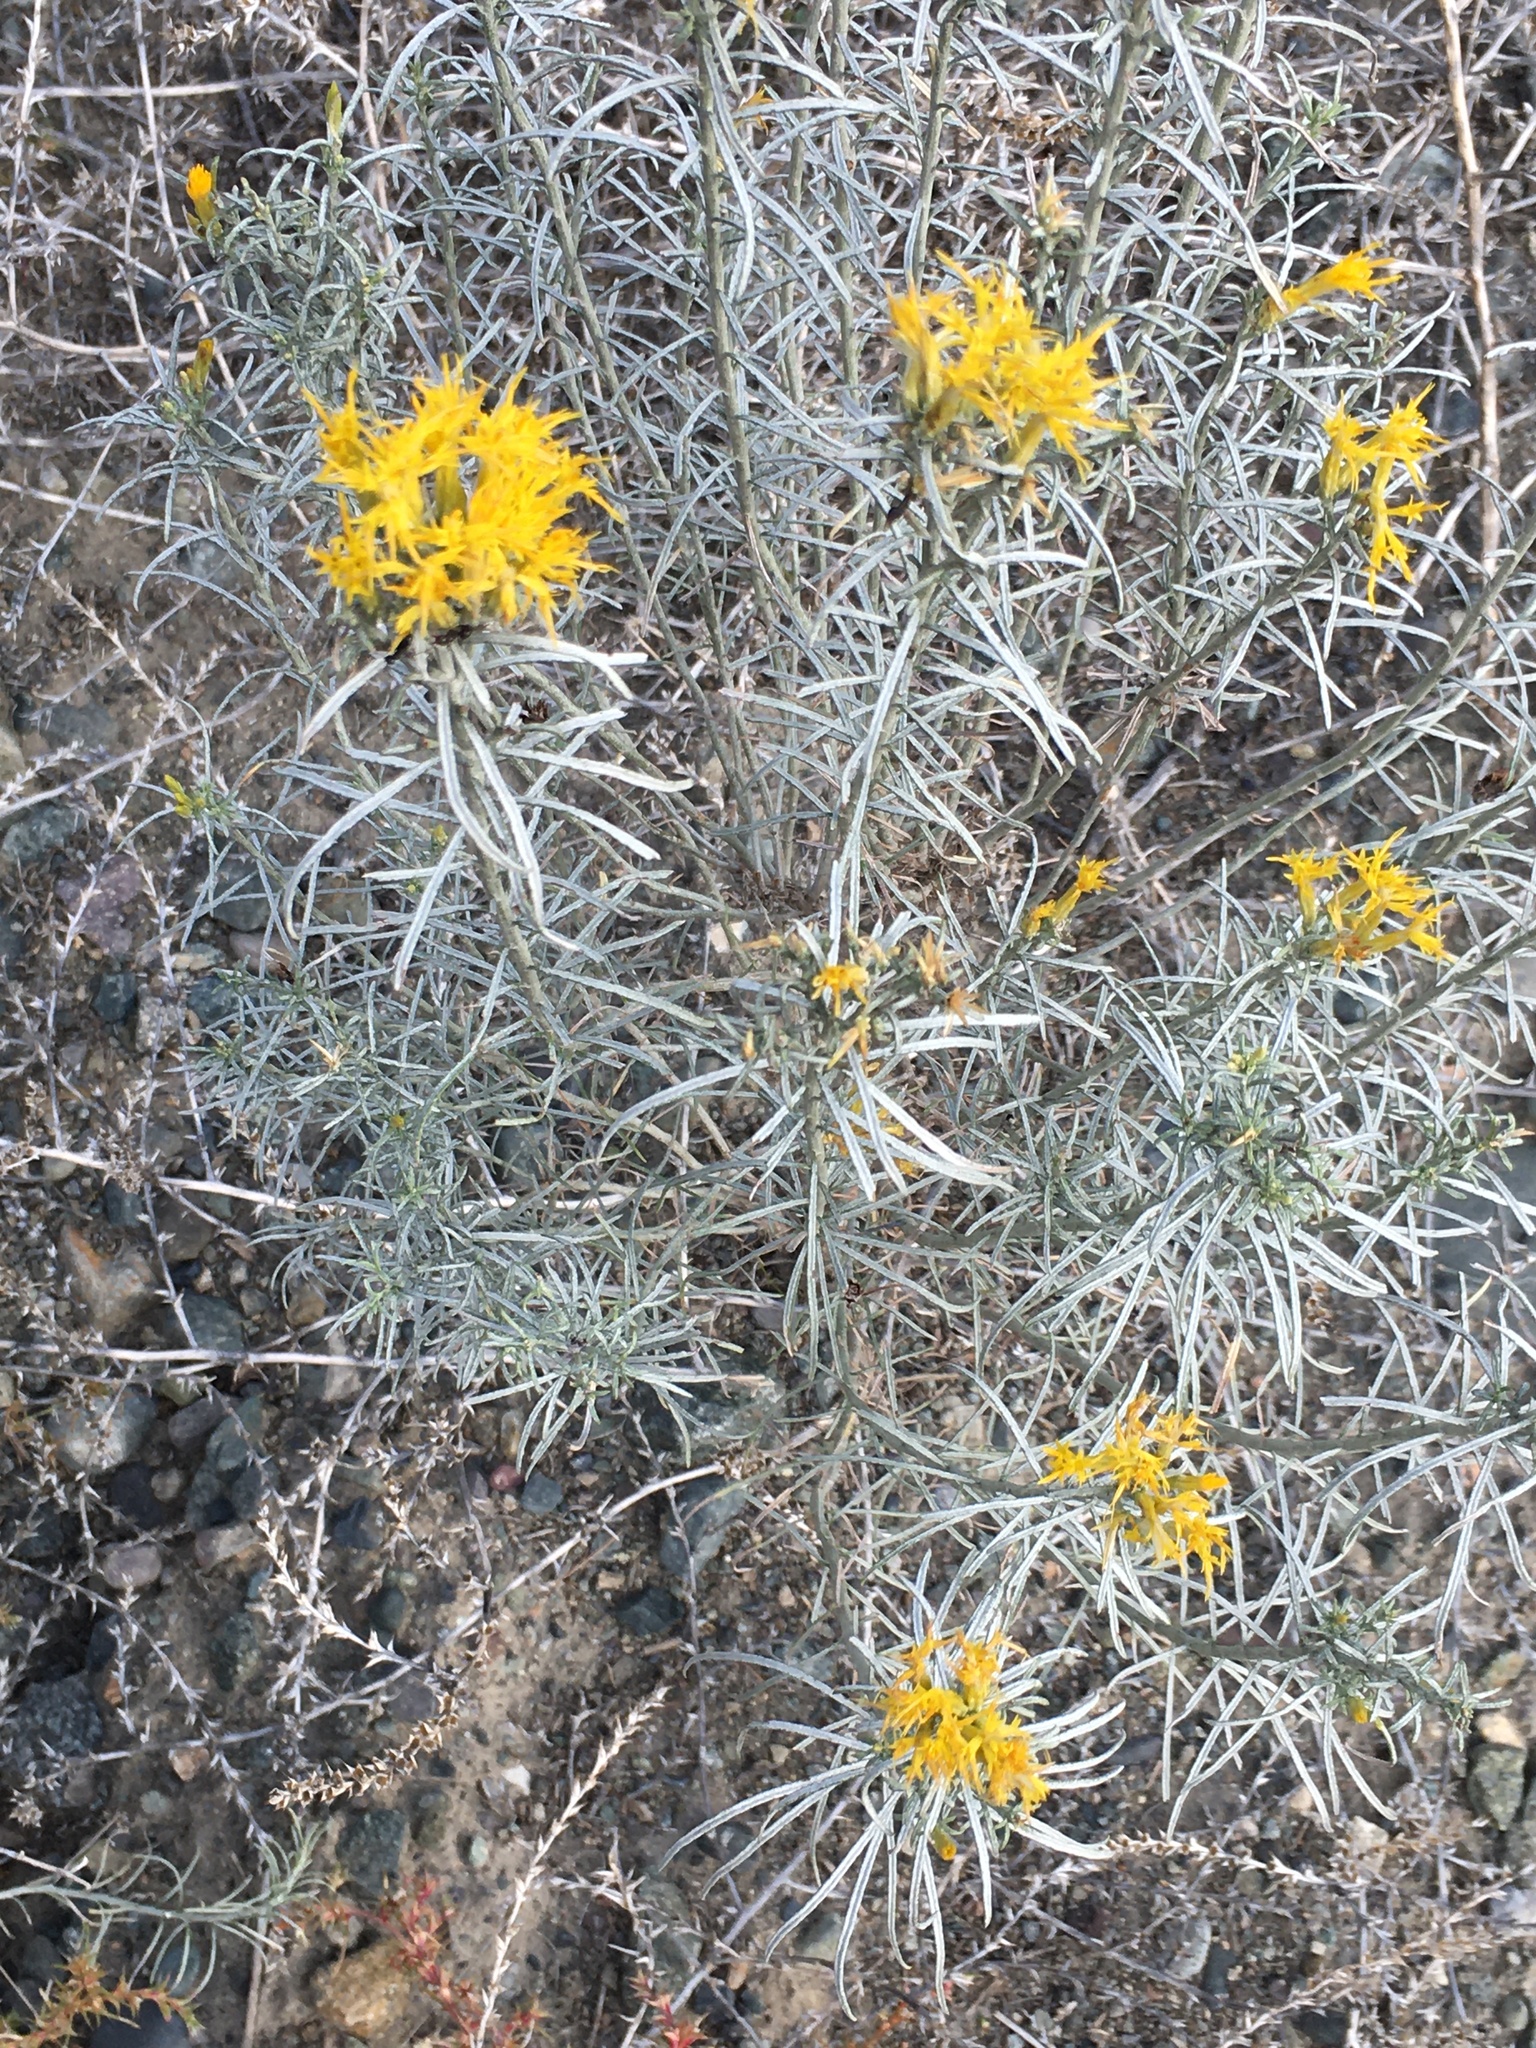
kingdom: Plantae
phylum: Tracheophyta
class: Magnoliopsida
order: Asterales
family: Asteraceae
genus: Ericameria
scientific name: Ericameria nauseosa
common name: Rubber rabbitbrush
